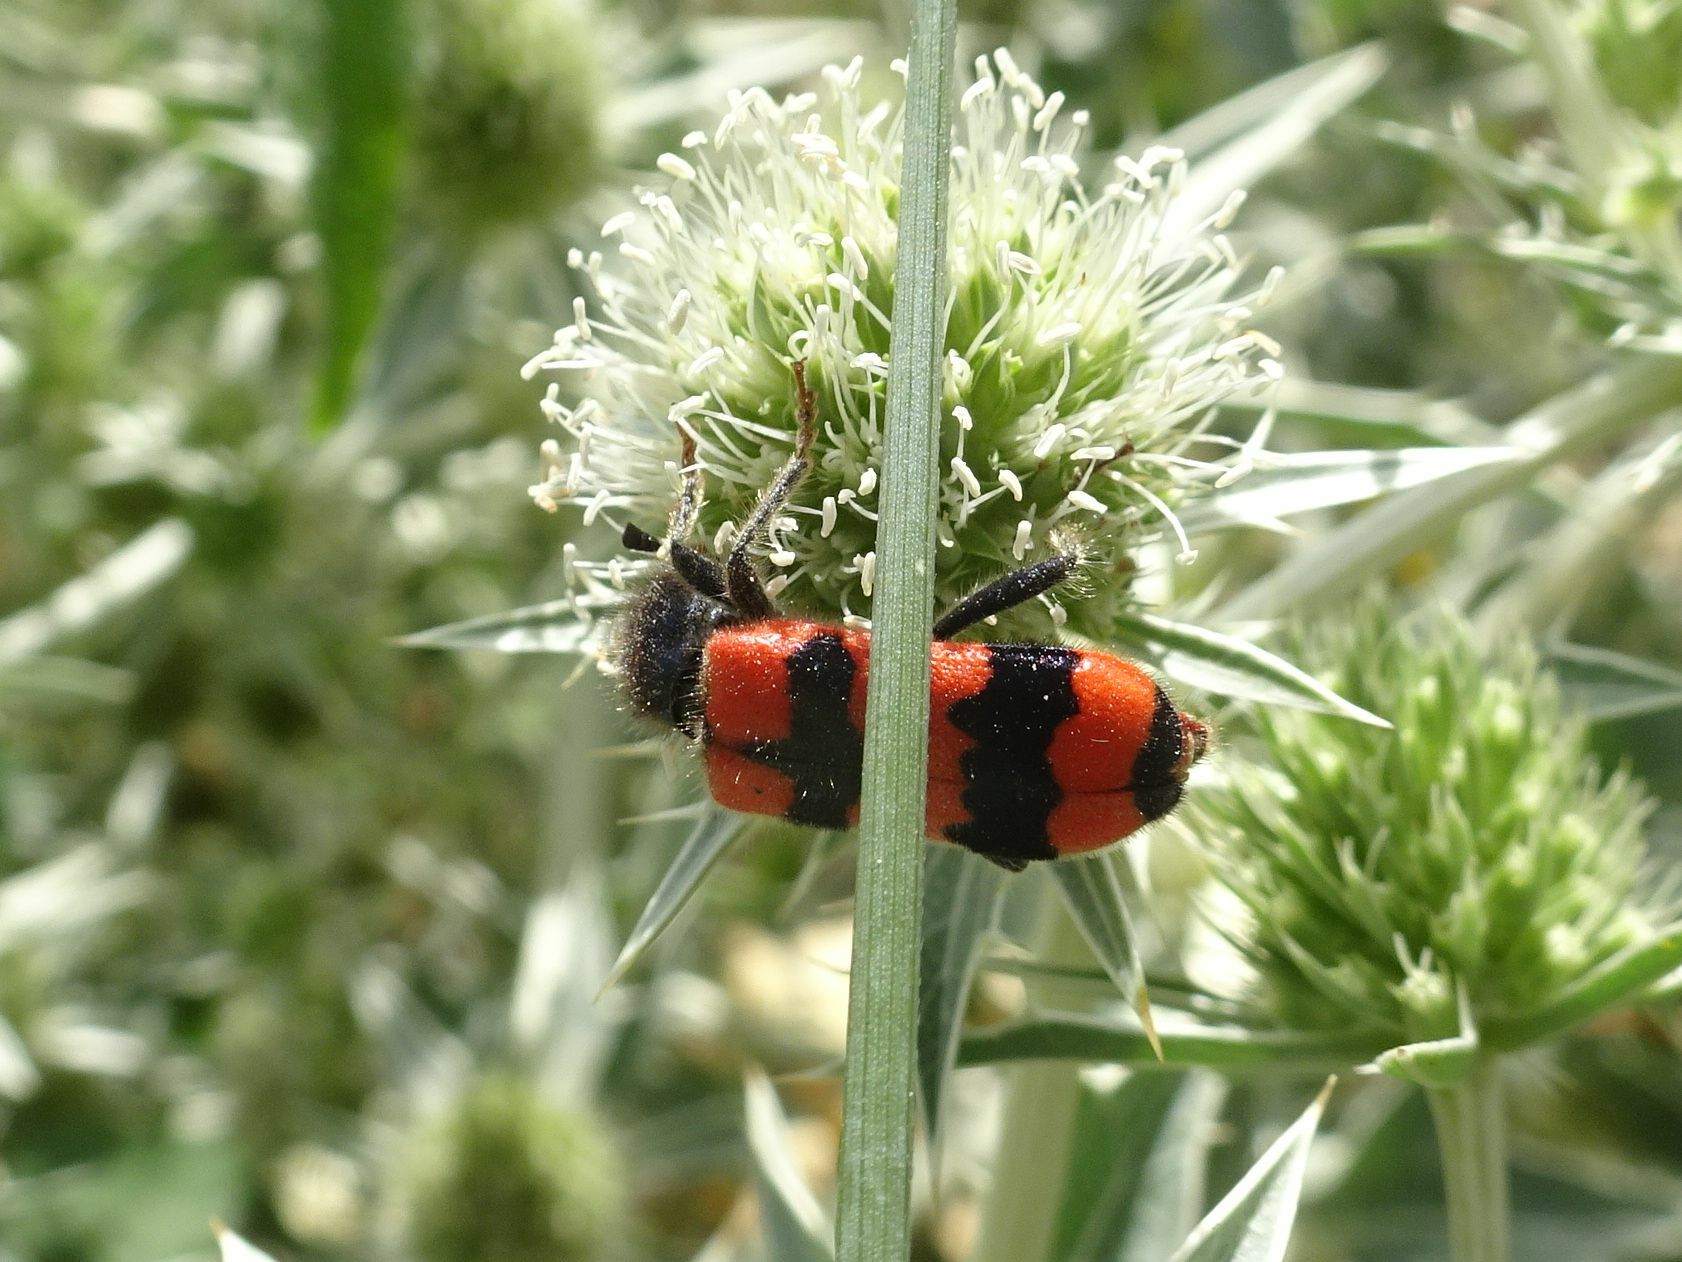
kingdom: Animalia
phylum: Arthropoda
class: Insecta
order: Coleoptera
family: Cleridae
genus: Trichodes
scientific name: Trichodes apiarius
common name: Bee-eating beetle
